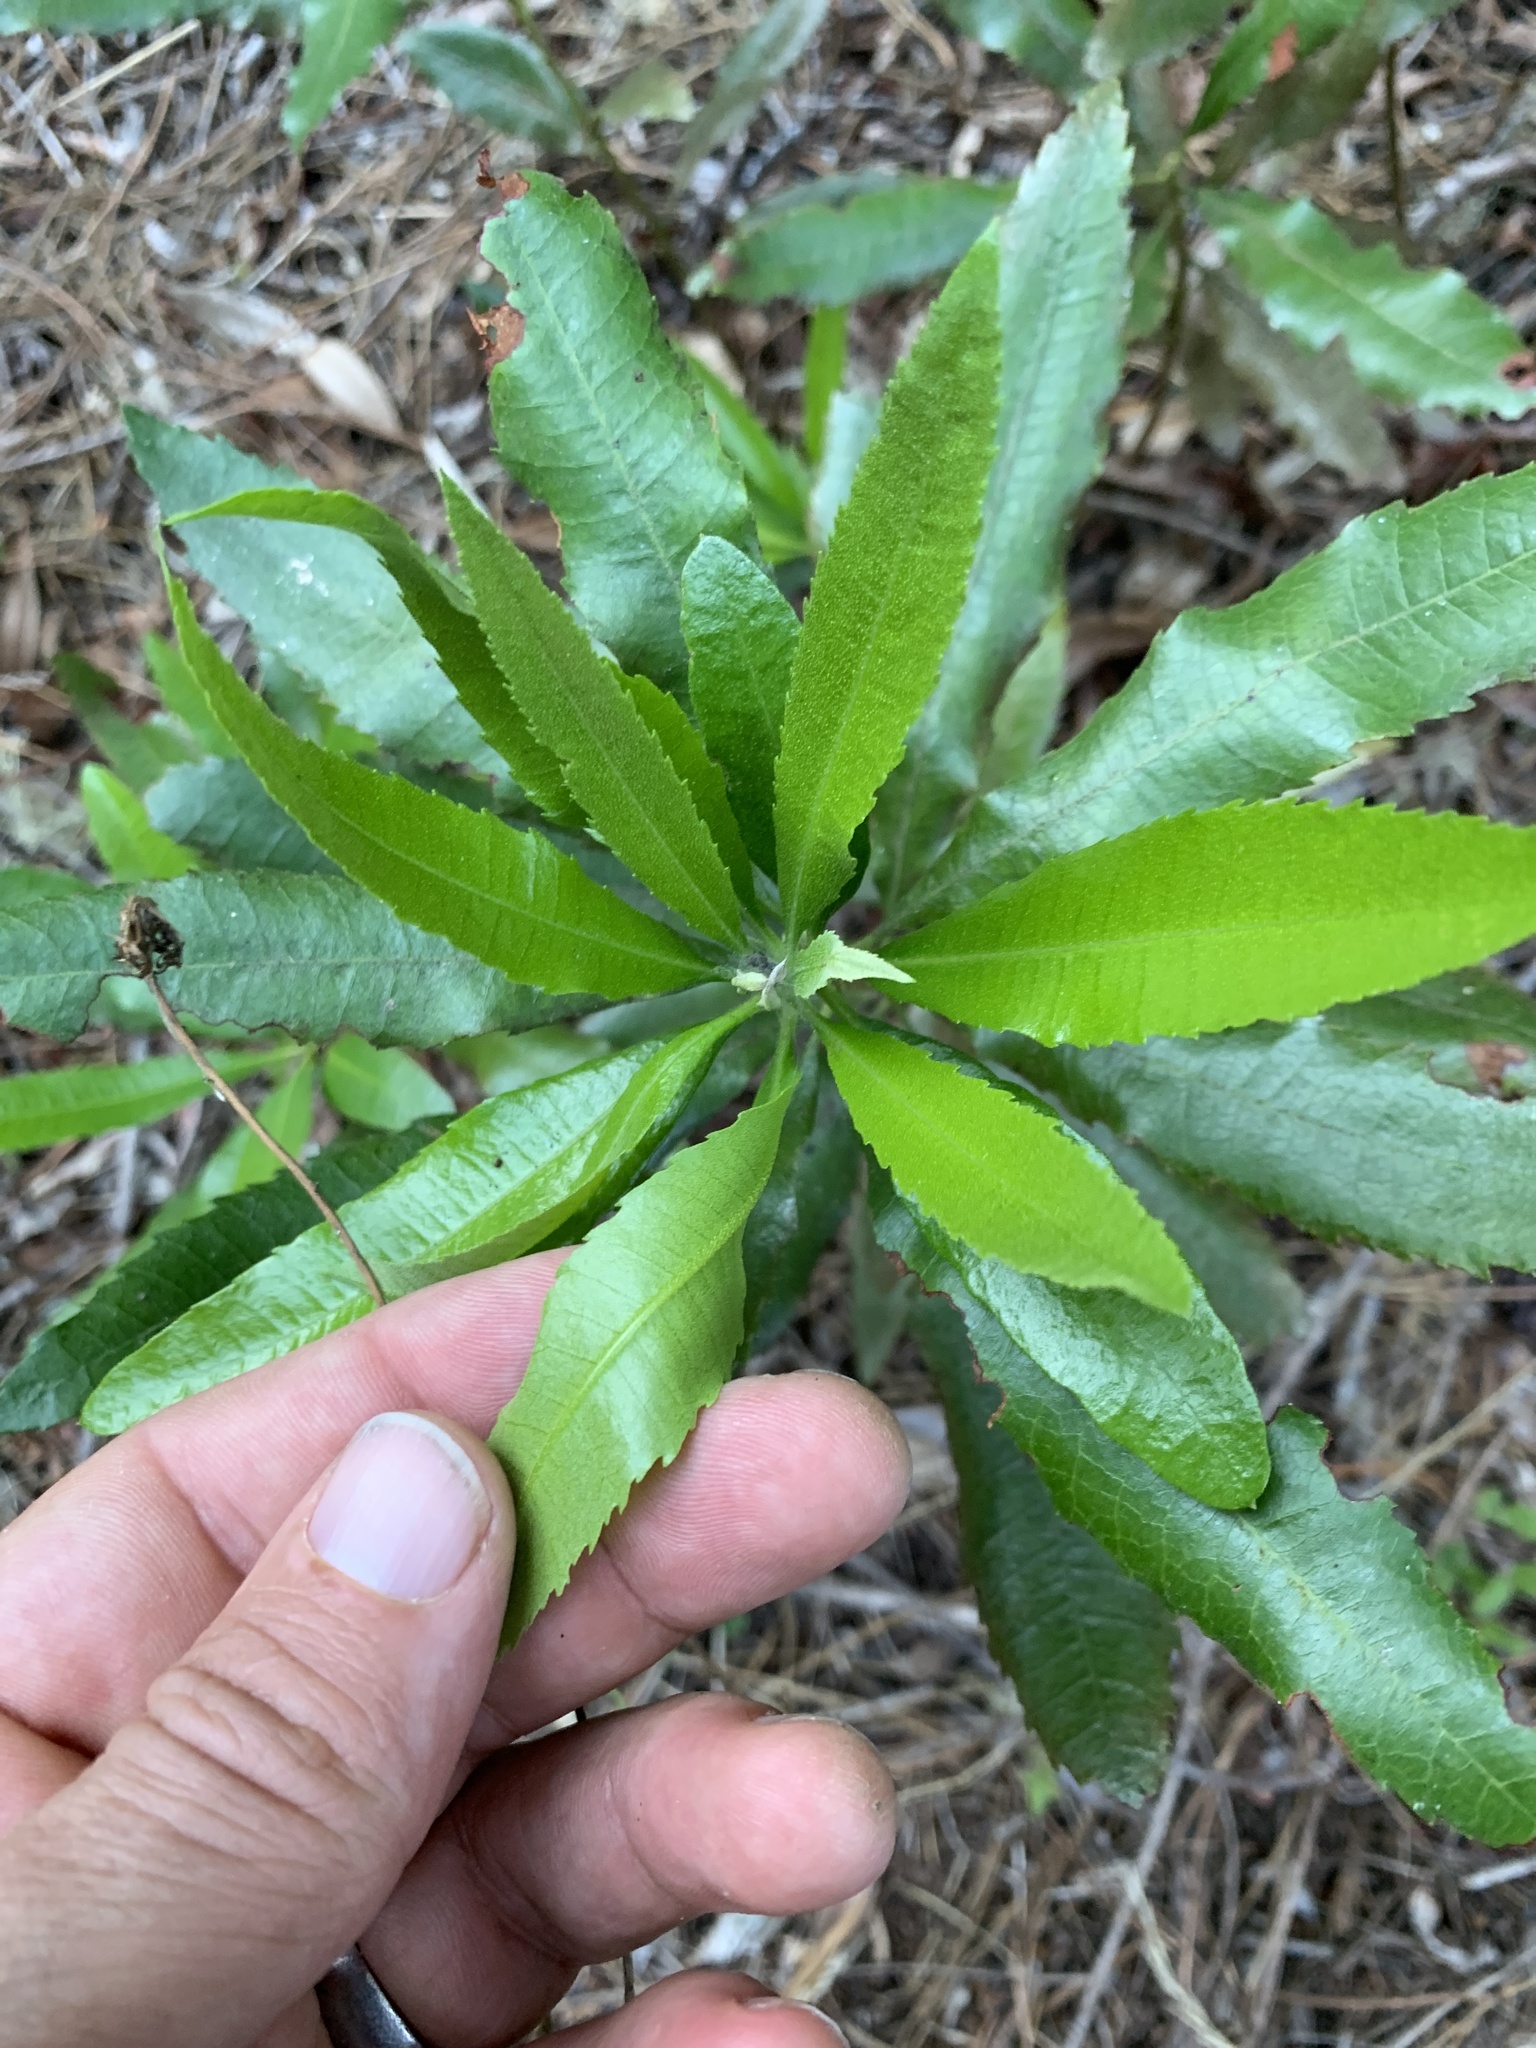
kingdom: Plantae
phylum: Tracheophyta
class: Magnoliopsida
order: Fagales
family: Myricaceae
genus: Morella
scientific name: Morella californica
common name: California wax-myrtle
